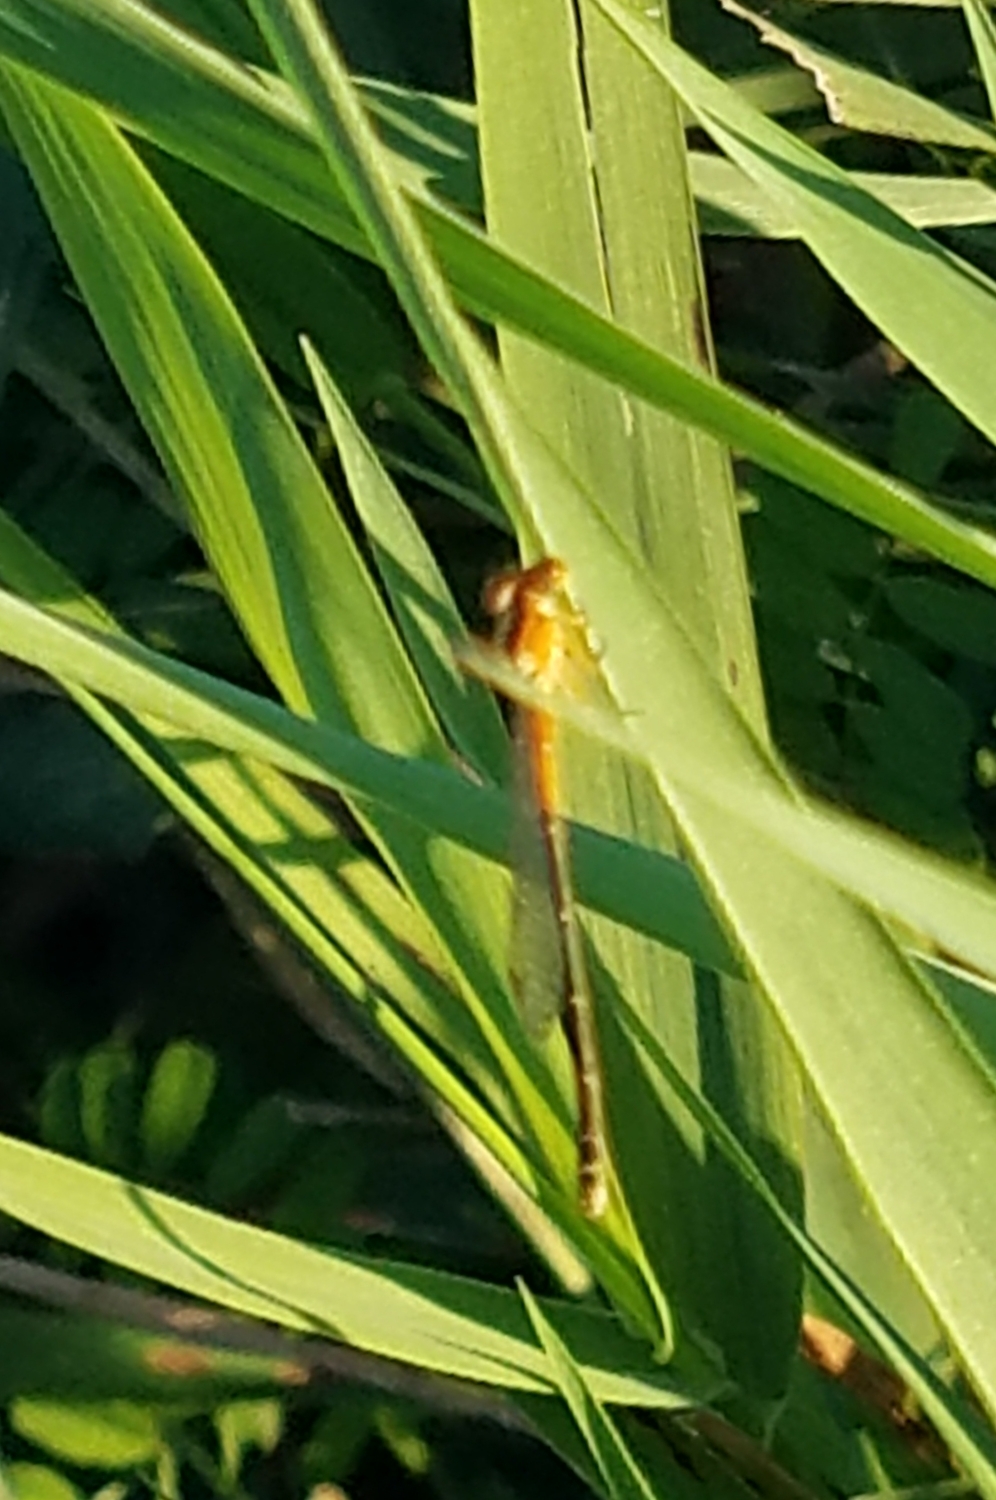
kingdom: Animalia
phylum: Arthropoda
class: Insecta
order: Odonata
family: Coenagrionidae
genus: Ischnura
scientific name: Ischnura verticalis
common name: Eastern forktail
